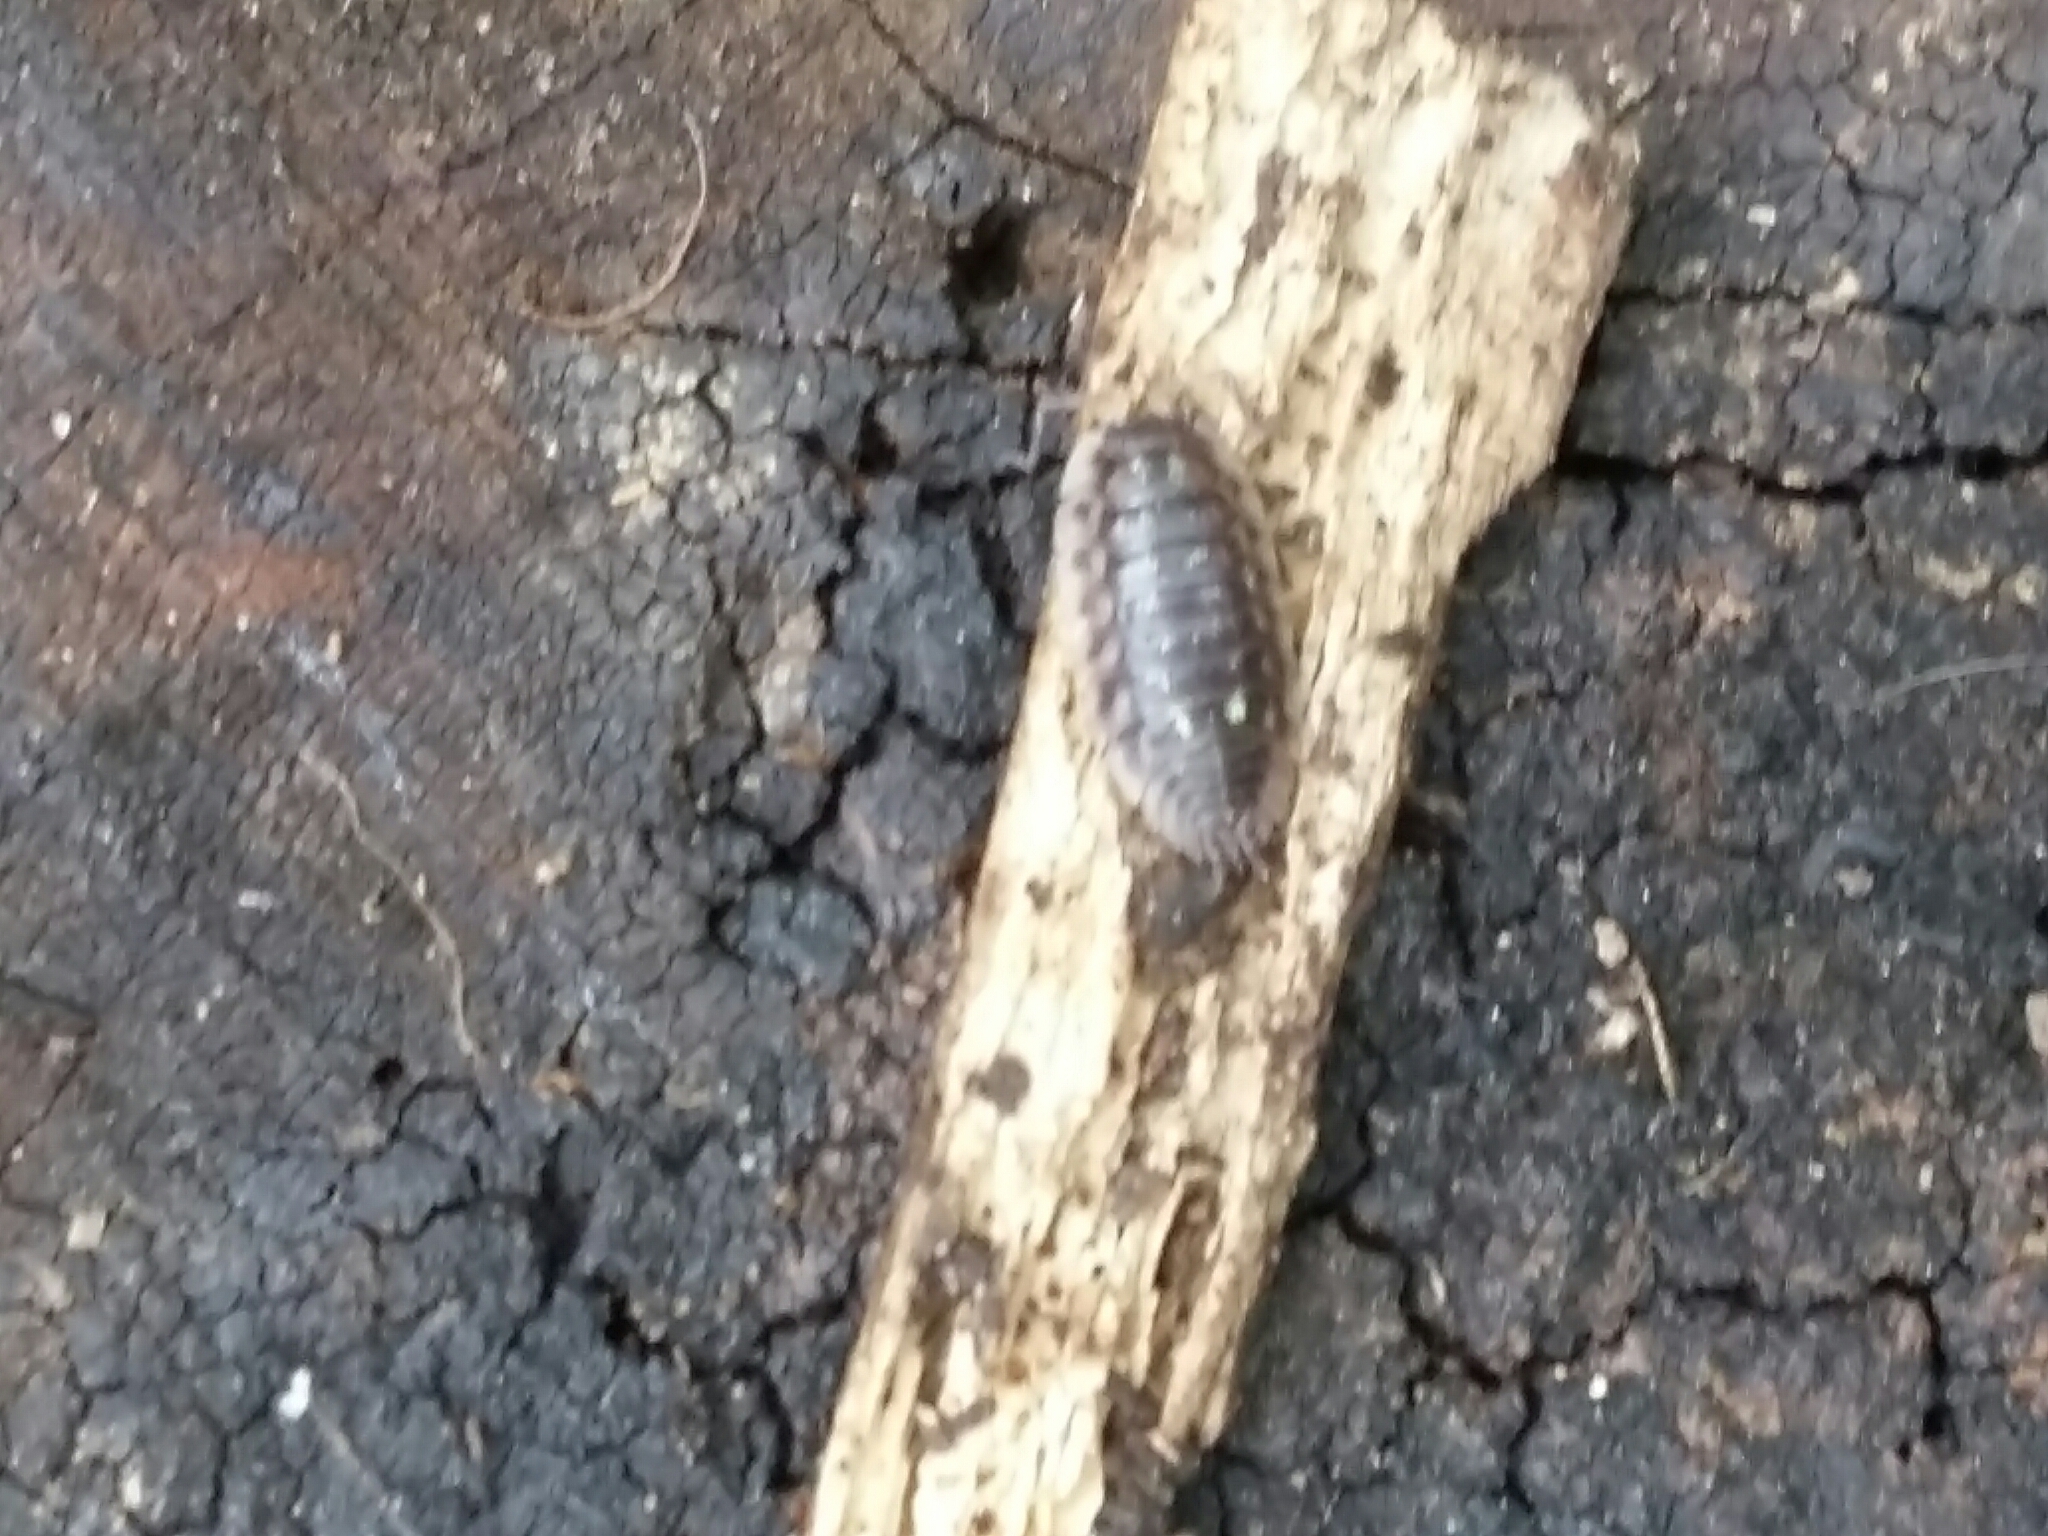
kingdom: Animalia
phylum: Arthropoda
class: Malacostraca
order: Isopoda
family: Oniscidae
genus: Oniscus
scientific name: Oniscus asellus
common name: Common shiny woodlouse
